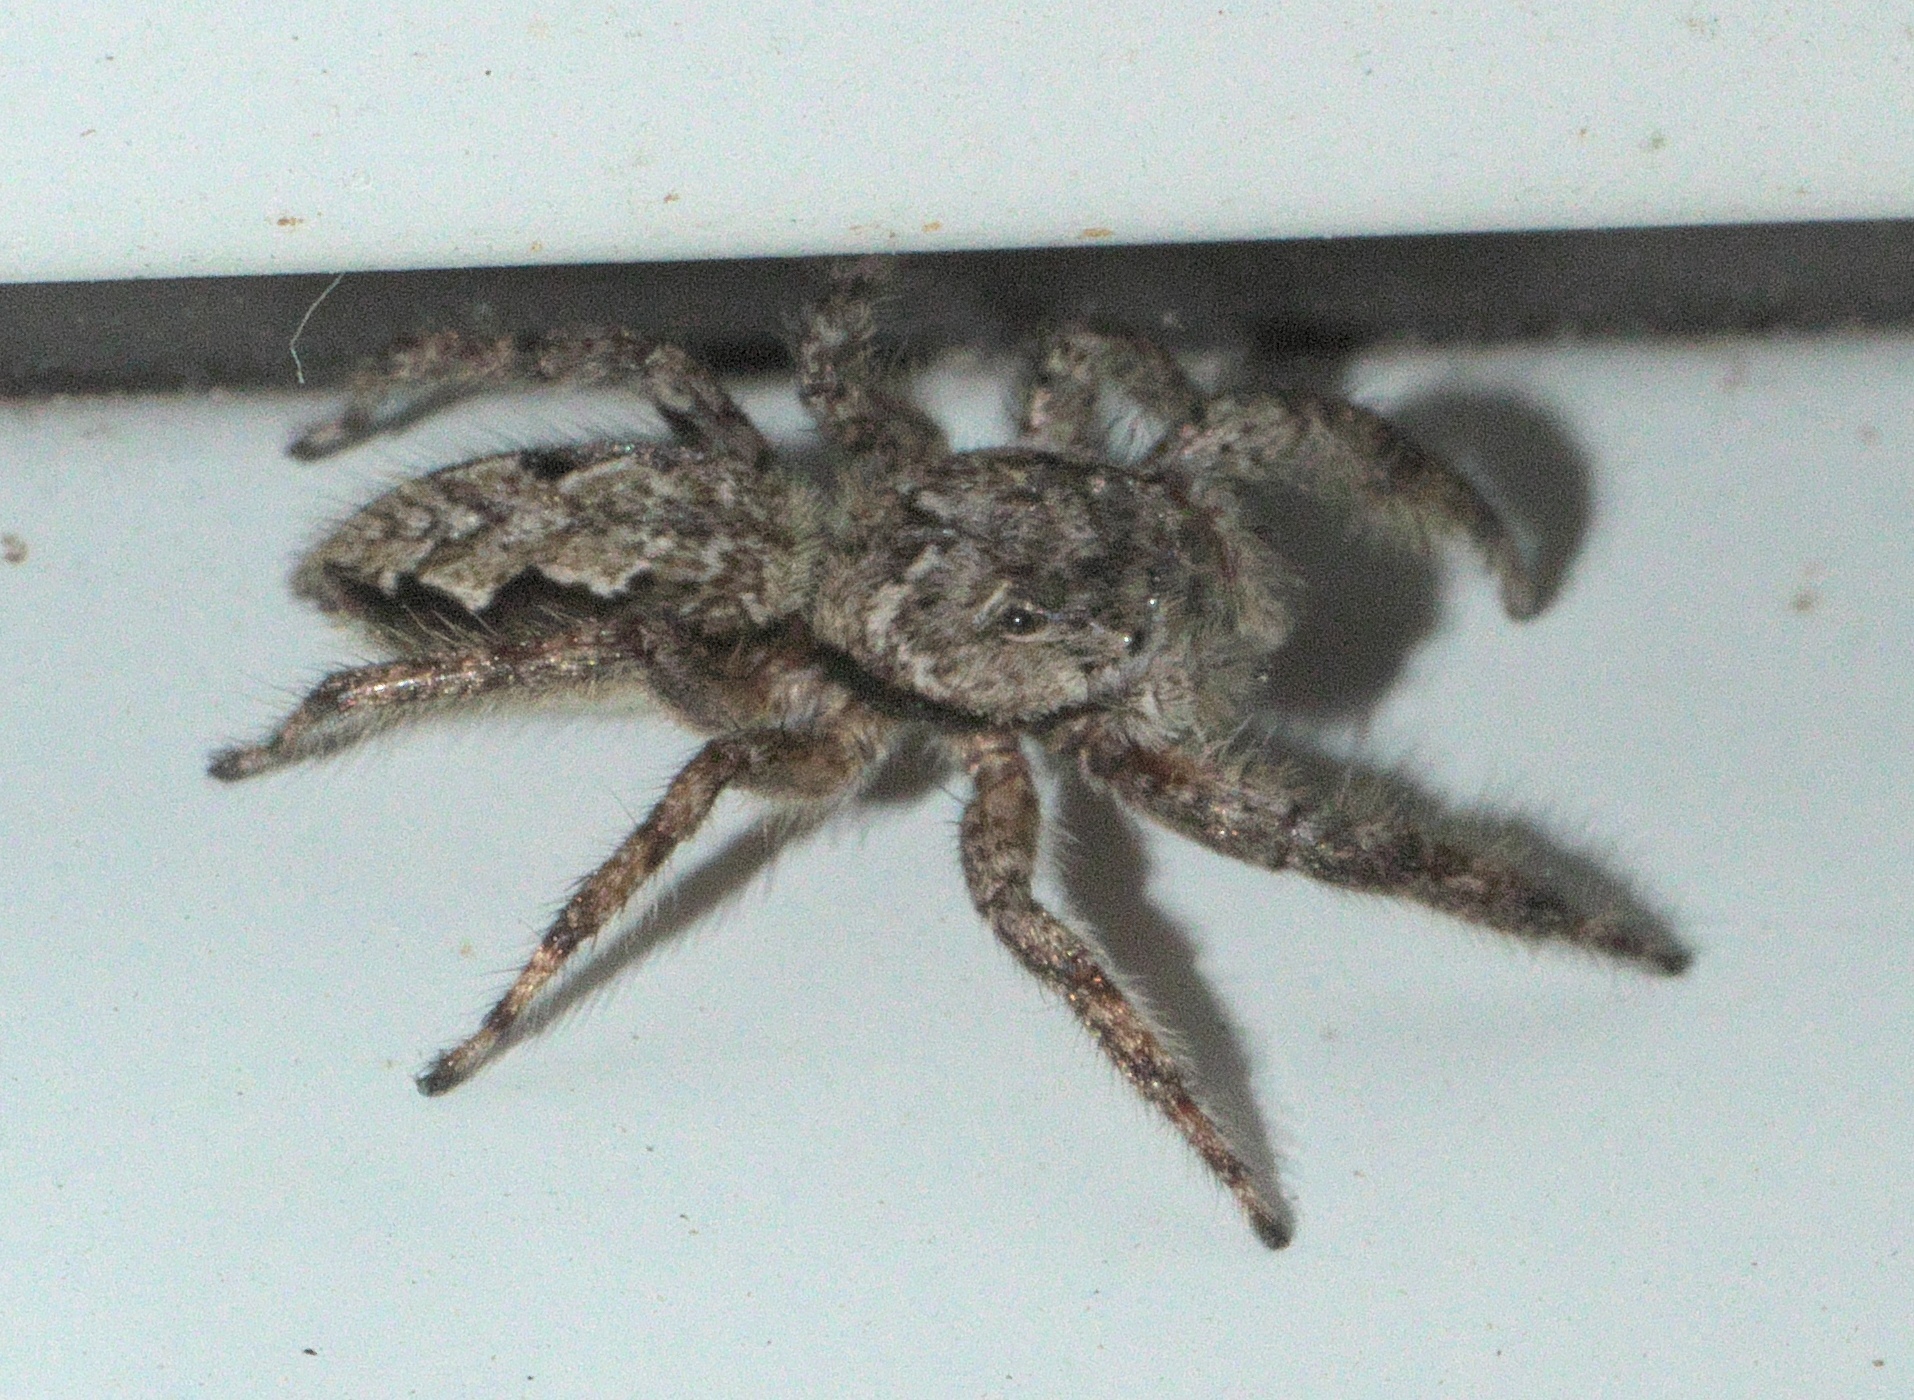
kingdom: Animalia
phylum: Arthropoda
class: Arachnida
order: Araneae
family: Salticidae
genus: Platycryptus
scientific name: Platycryptus undatus
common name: Tan jumping spider
